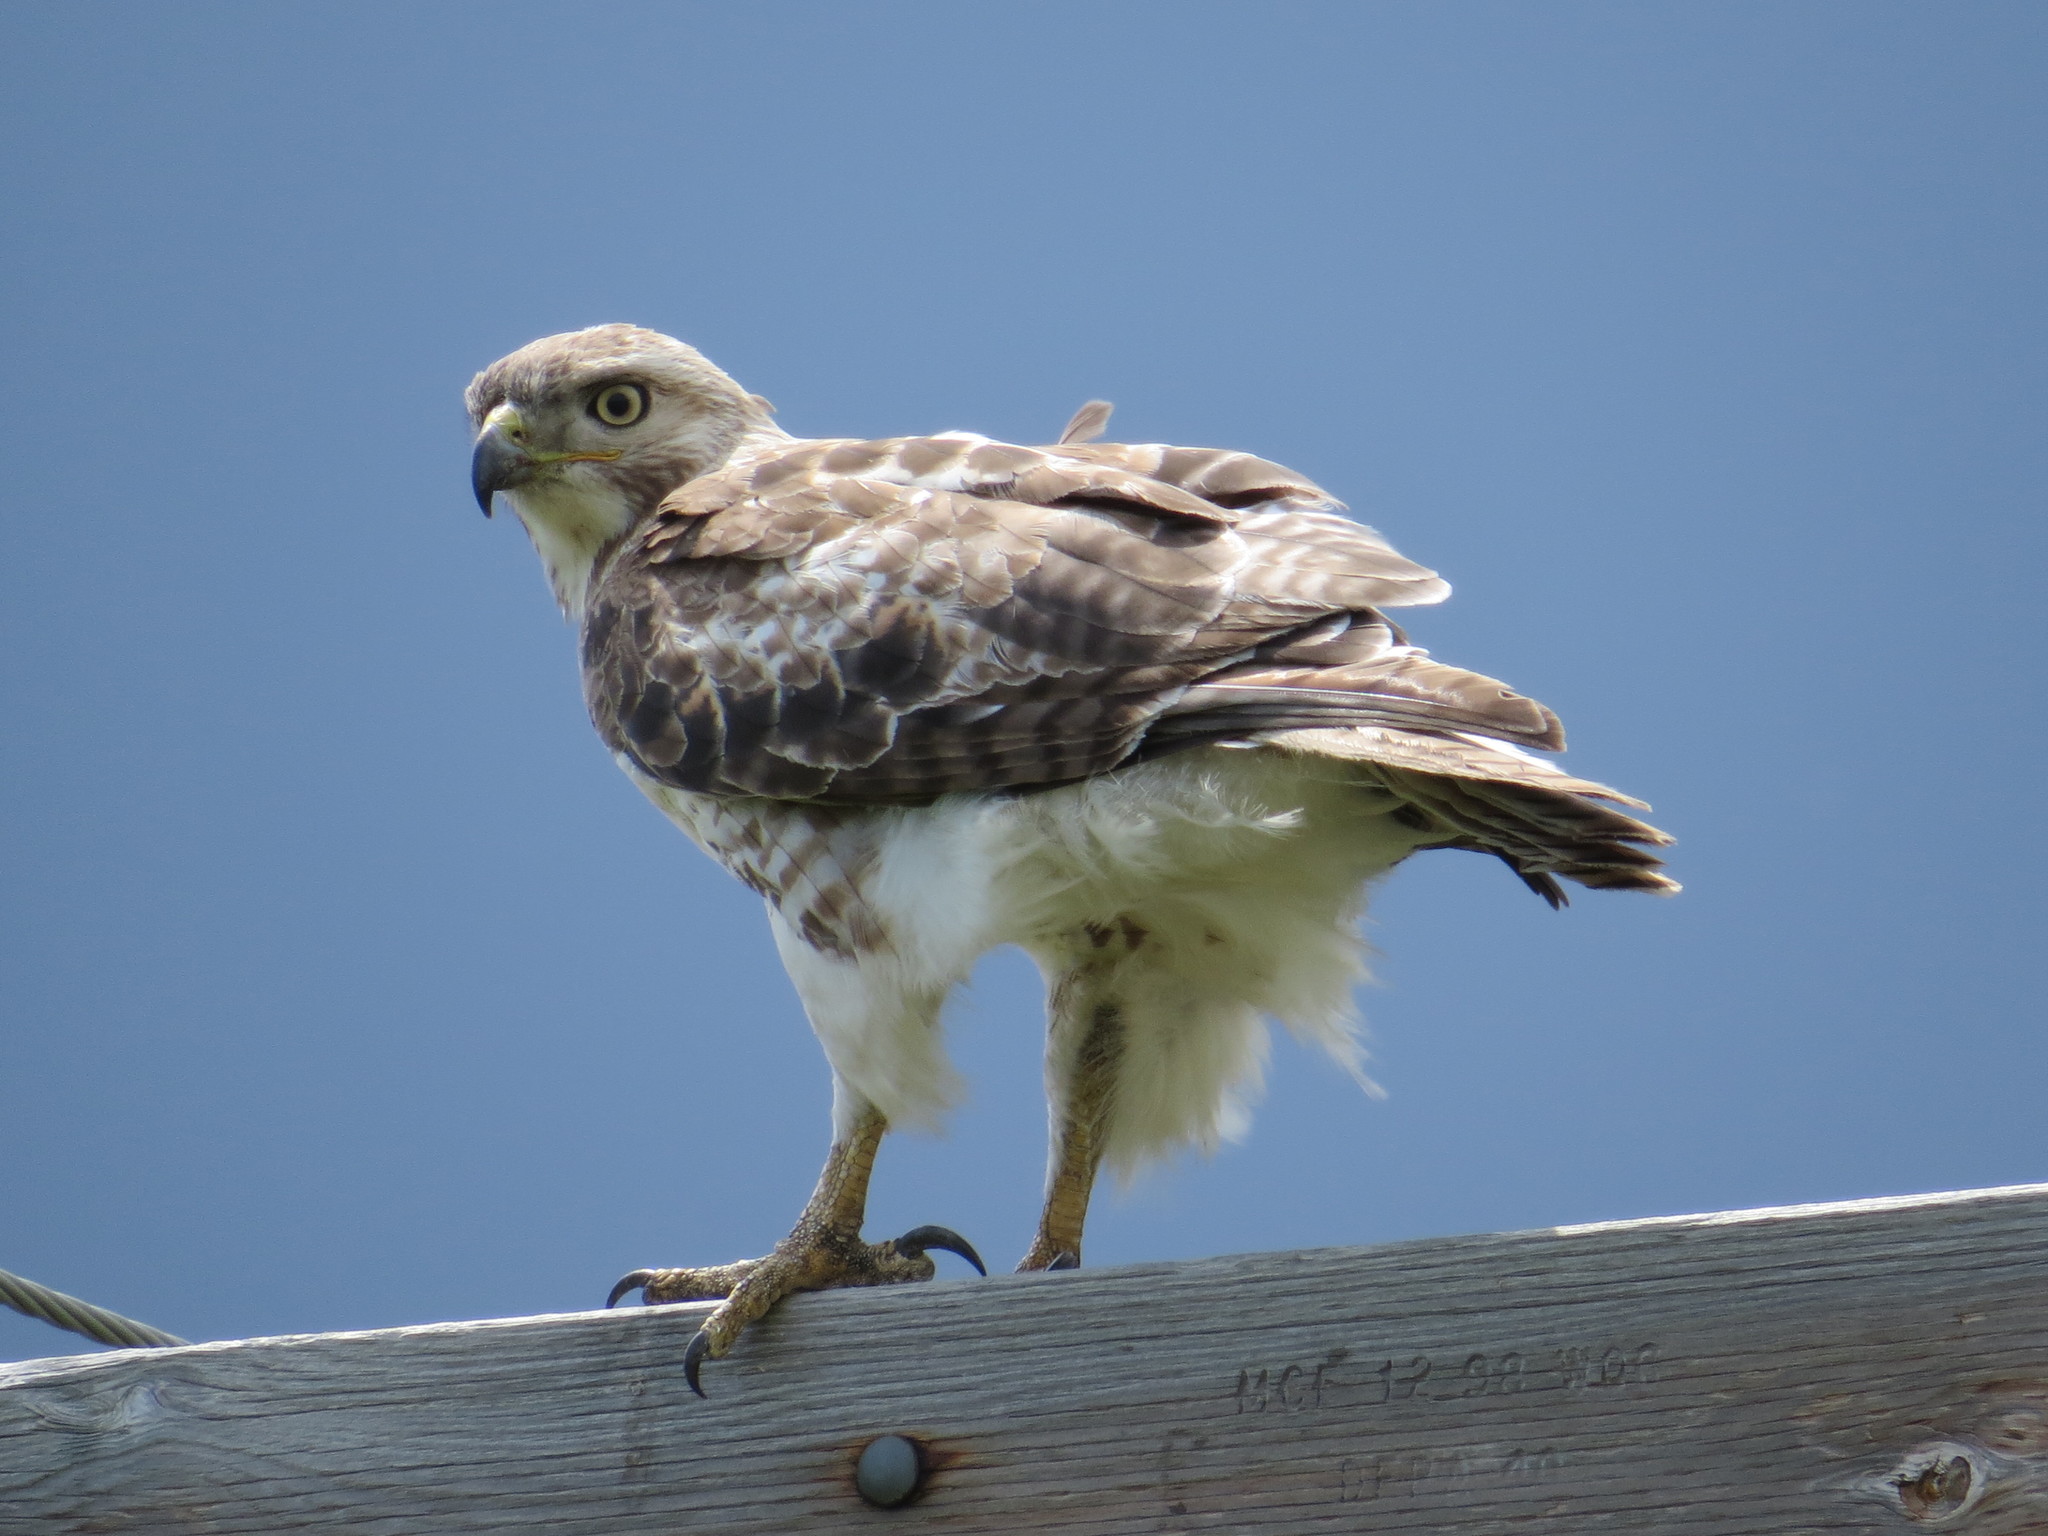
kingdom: Animalia
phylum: Chordata
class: Aves
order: Accipitriformes
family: Accipitridae
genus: Buteo
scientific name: Buteo jamaicensis
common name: Red-tailed hawk
